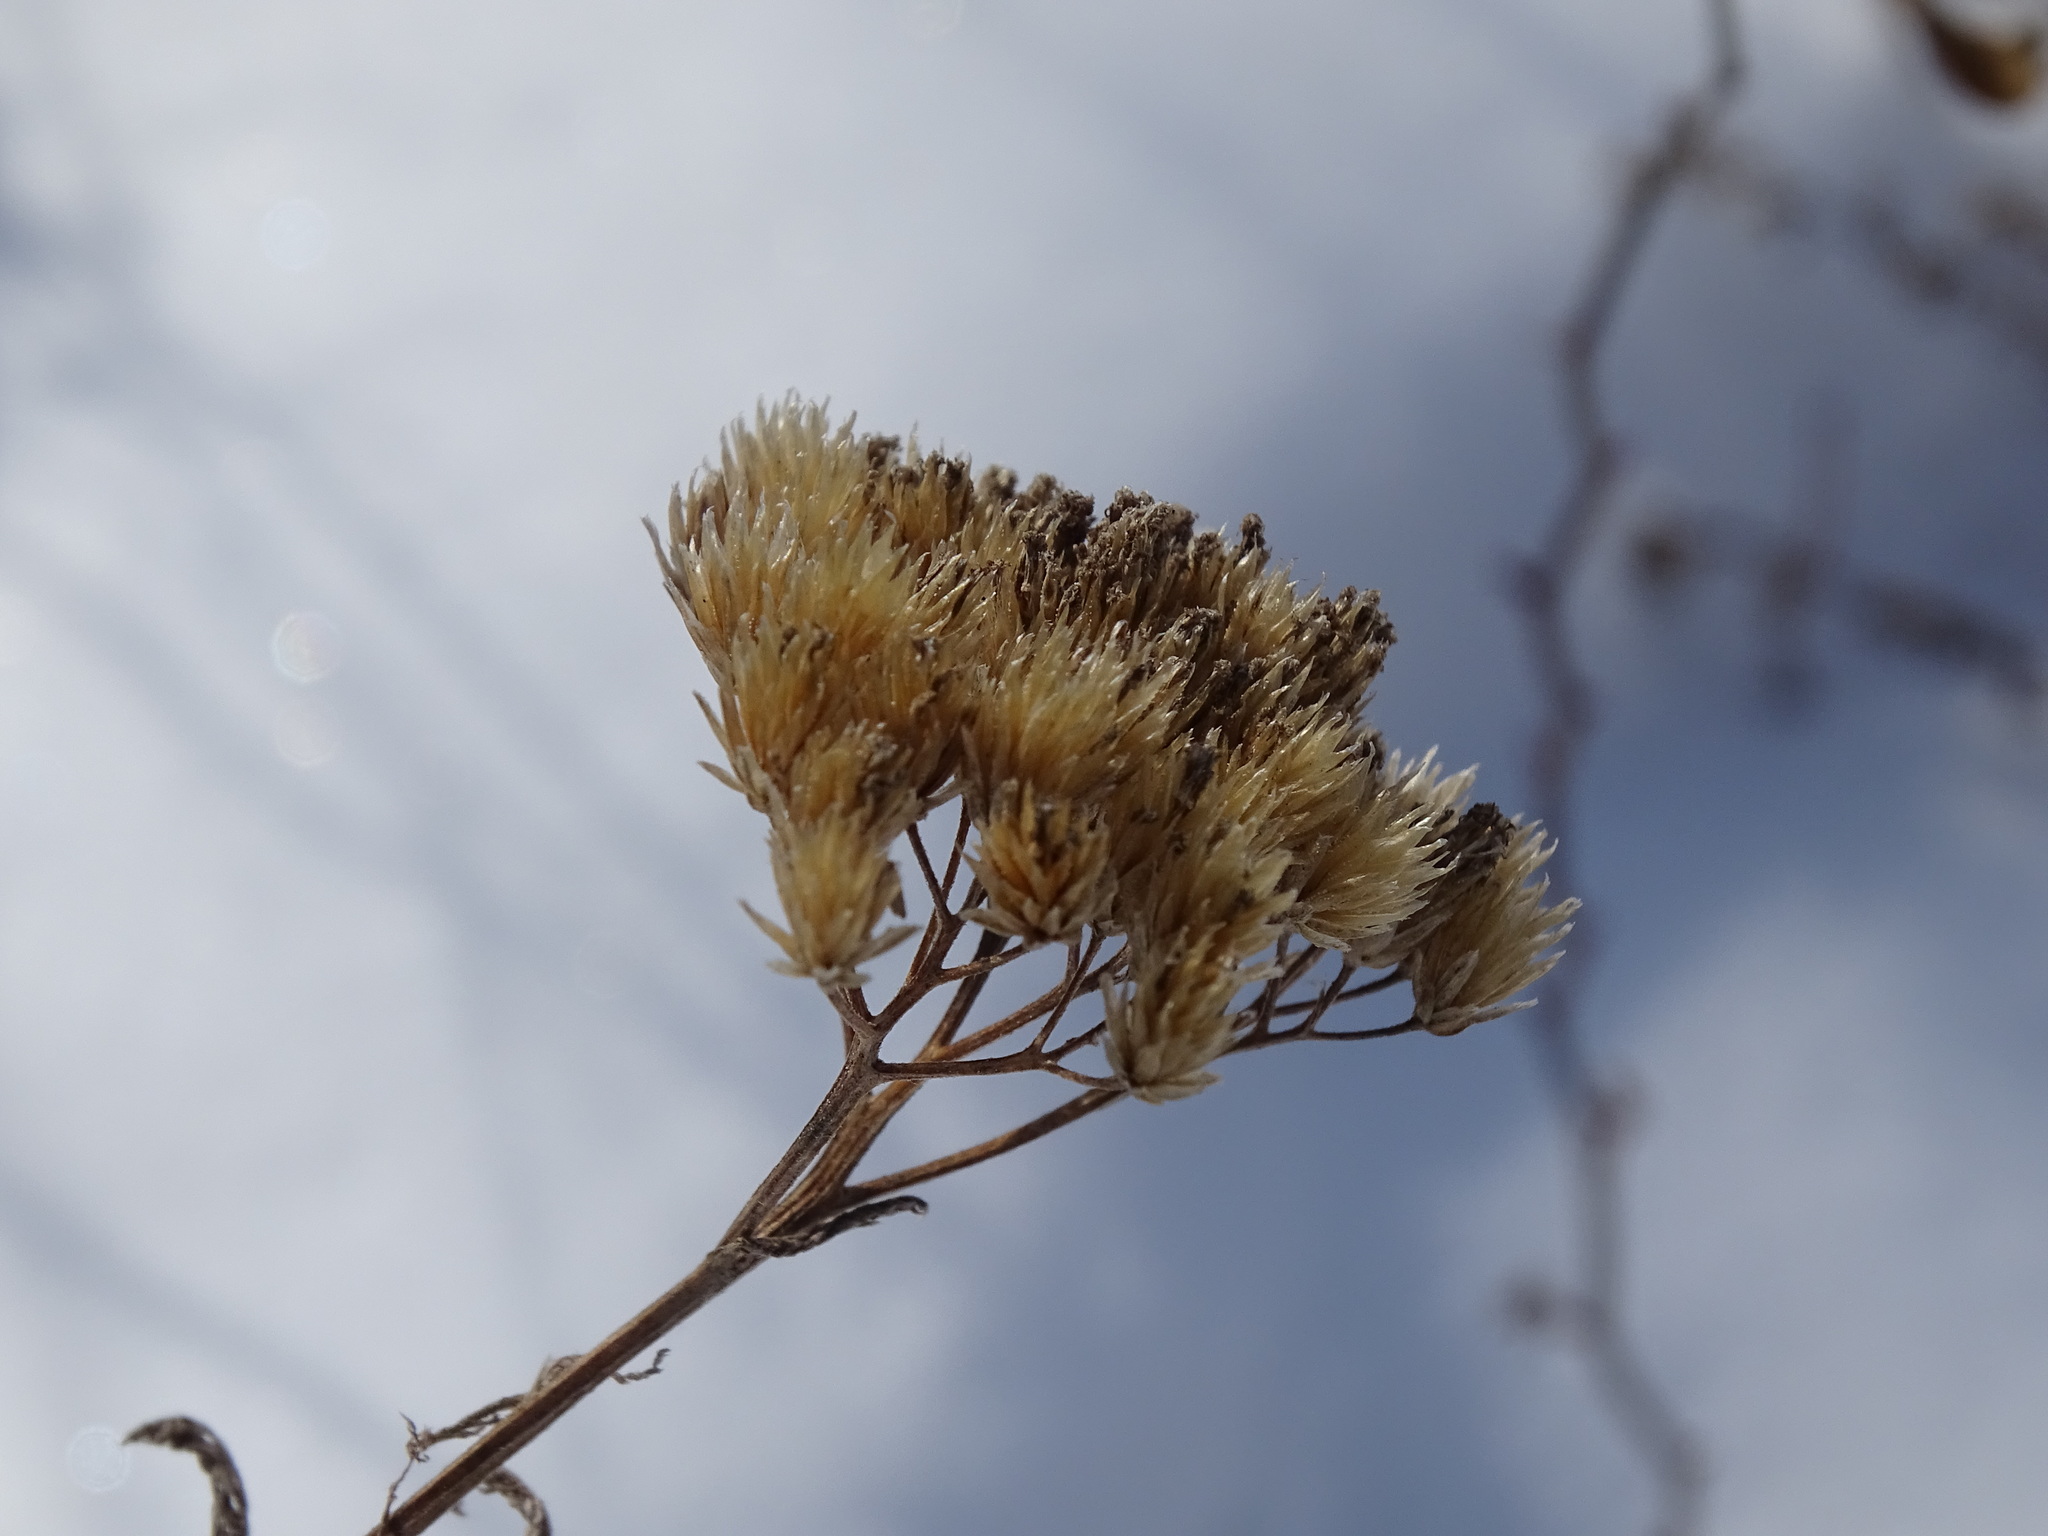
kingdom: Plantae
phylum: Tracheophyta
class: Magnoliopsida
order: Asterales
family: Asteraceae
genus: Achillea
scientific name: Achillea millefolium
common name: Yarrow
